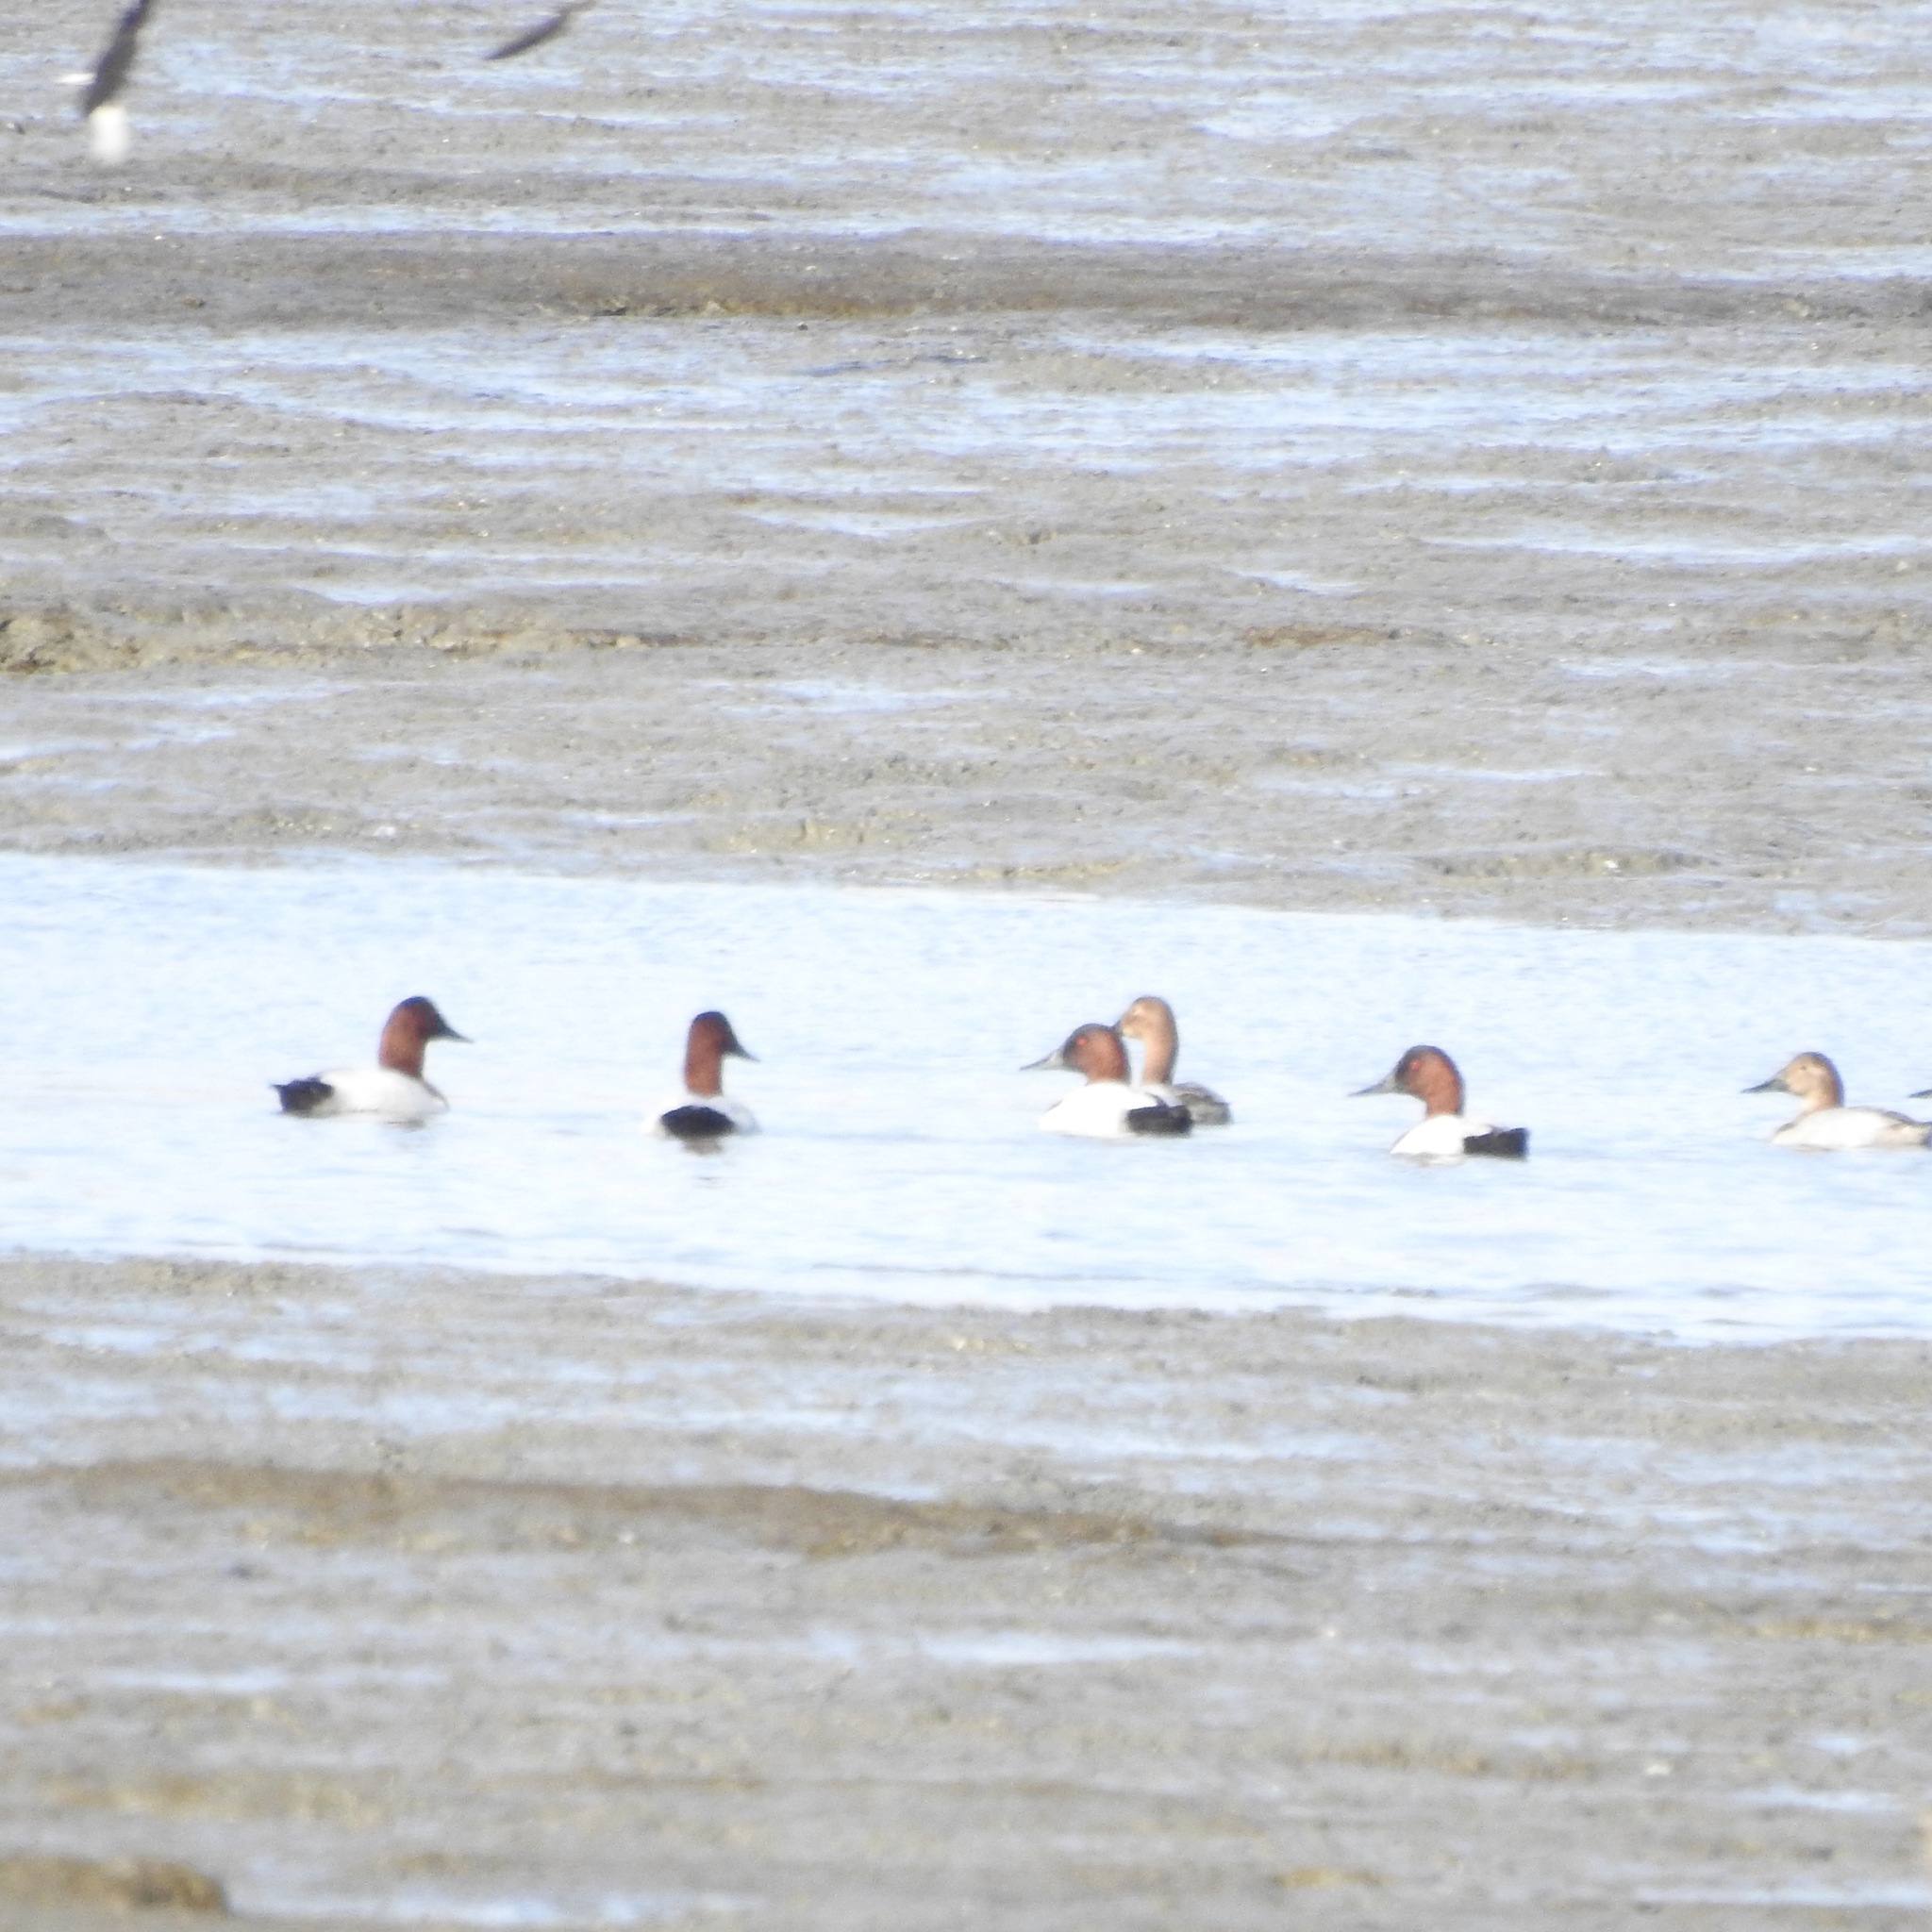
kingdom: Animalia
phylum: Chordata
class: Aves
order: Anseriformes
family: Anatidae
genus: Aythya
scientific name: Aythya valisineria
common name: Canvasback
